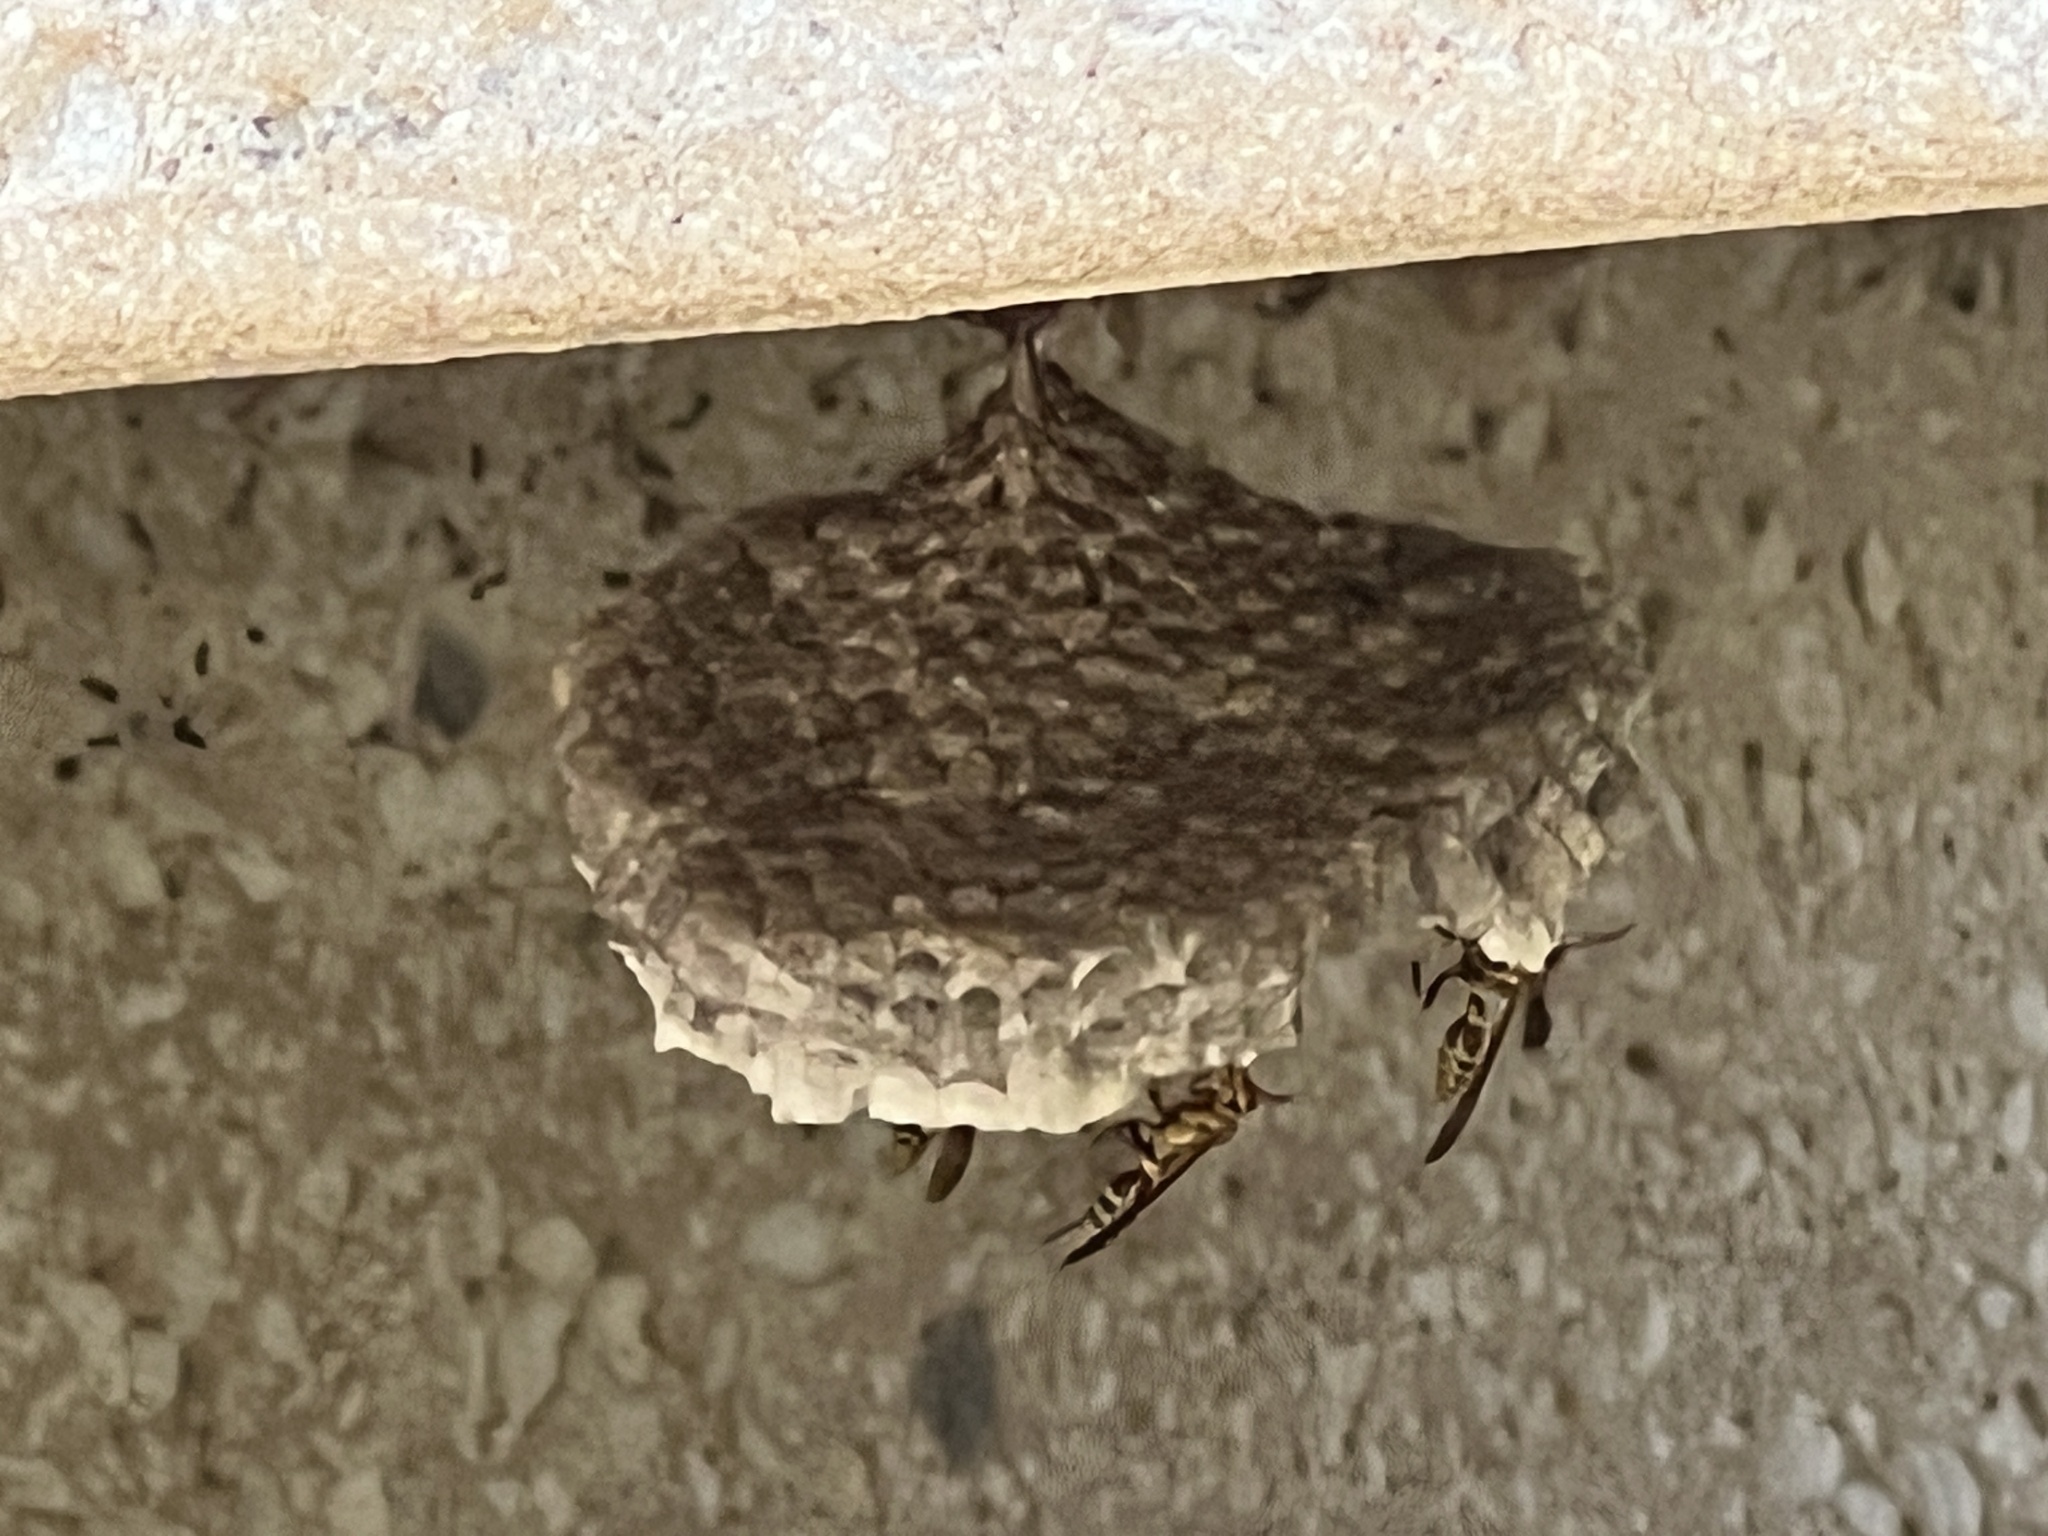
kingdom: Animalia
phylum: Arthropoda
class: Insecta
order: Hymenoptera
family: Eumenidae
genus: Polistes
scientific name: Polistes exclamans
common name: Paper wasp
